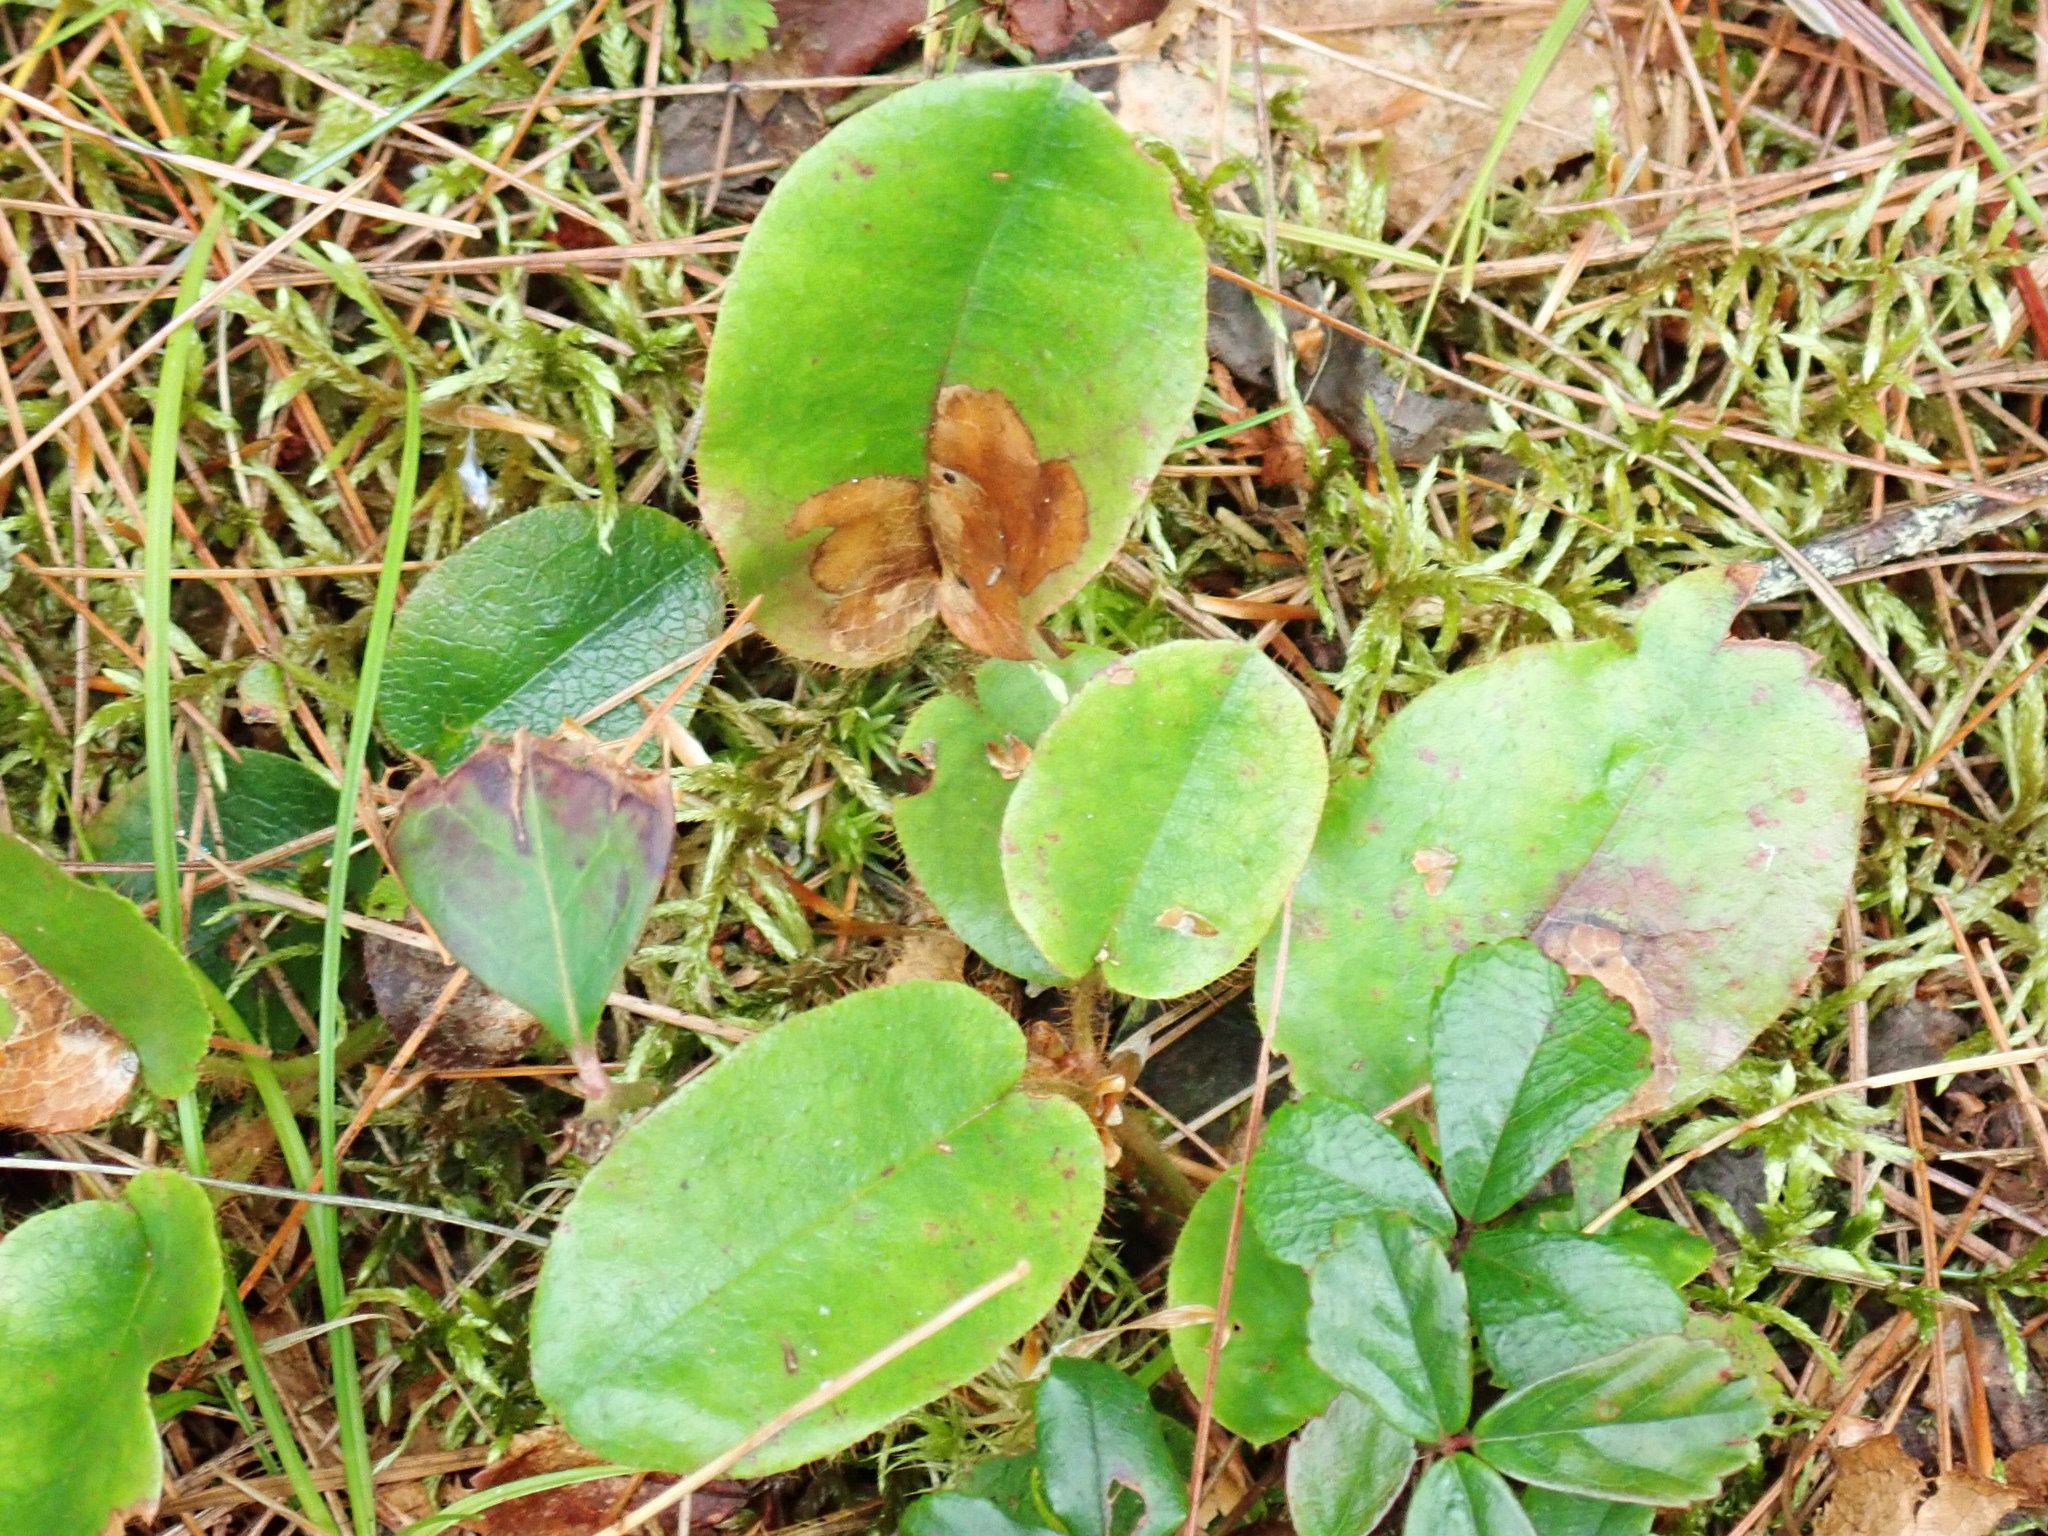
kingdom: Plantae
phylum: Tracheophyta
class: Magnoliopsida
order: Ericales
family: Ericaceae
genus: Epigaea
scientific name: Epigaea repens
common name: Gravelroot
